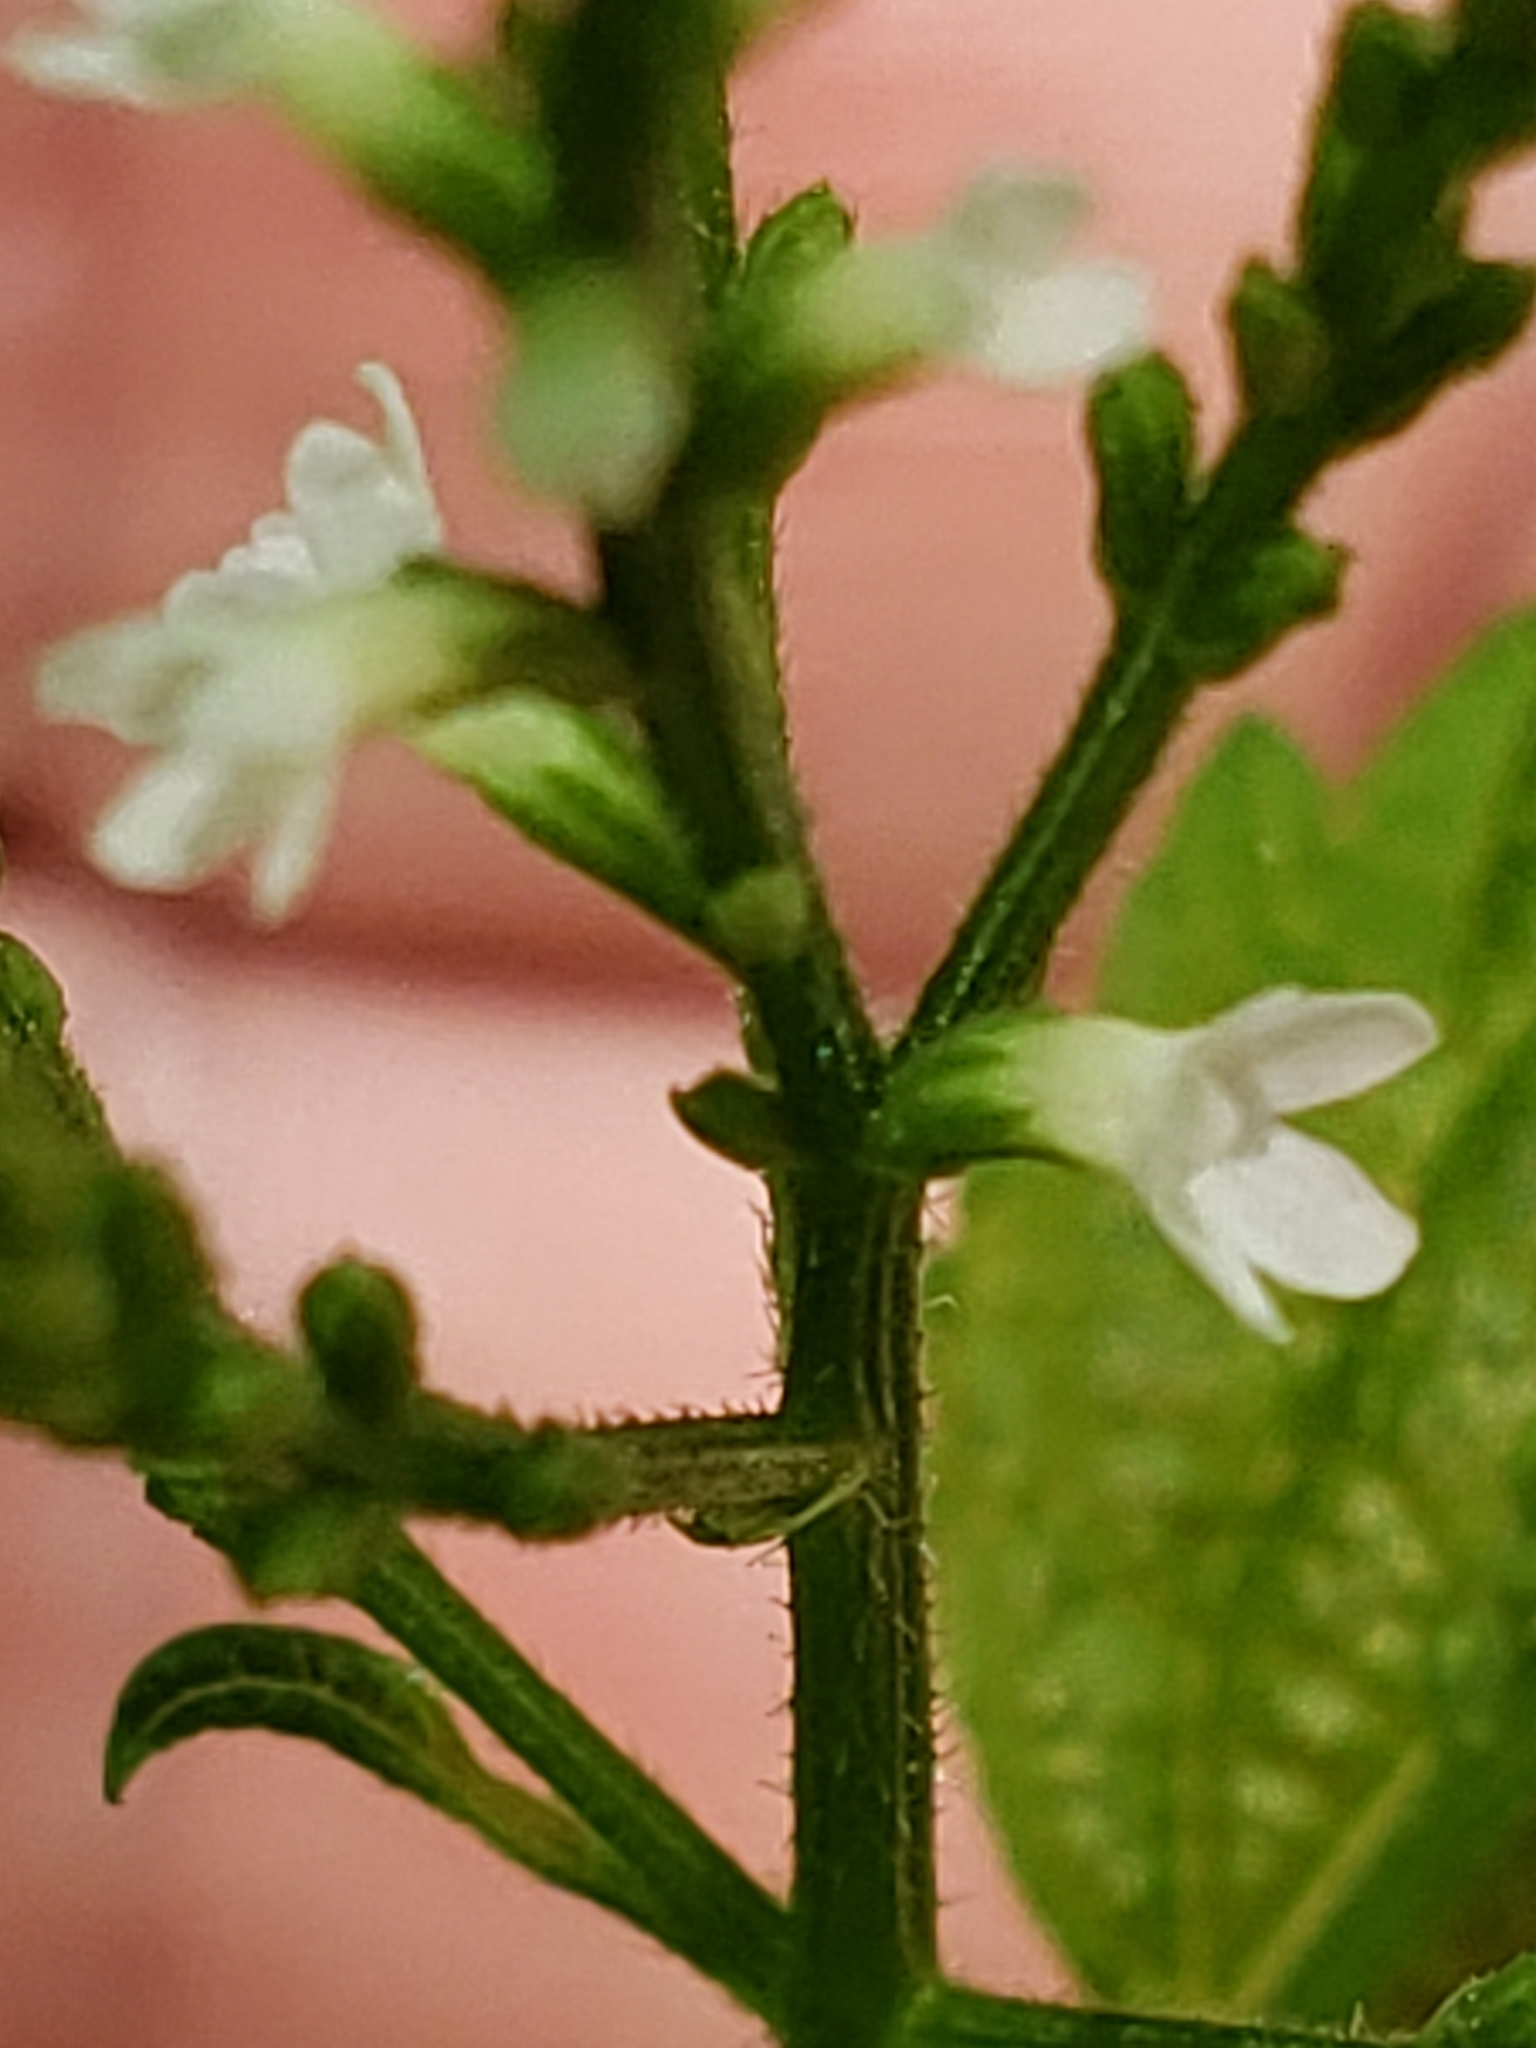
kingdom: Plantae
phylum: Tracheophyta
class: Magnoliopsida
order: Lamiales
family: Verbenaceae
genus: Verbena
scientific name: Verbena urticifolia
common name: Nettle-leaved vervain
